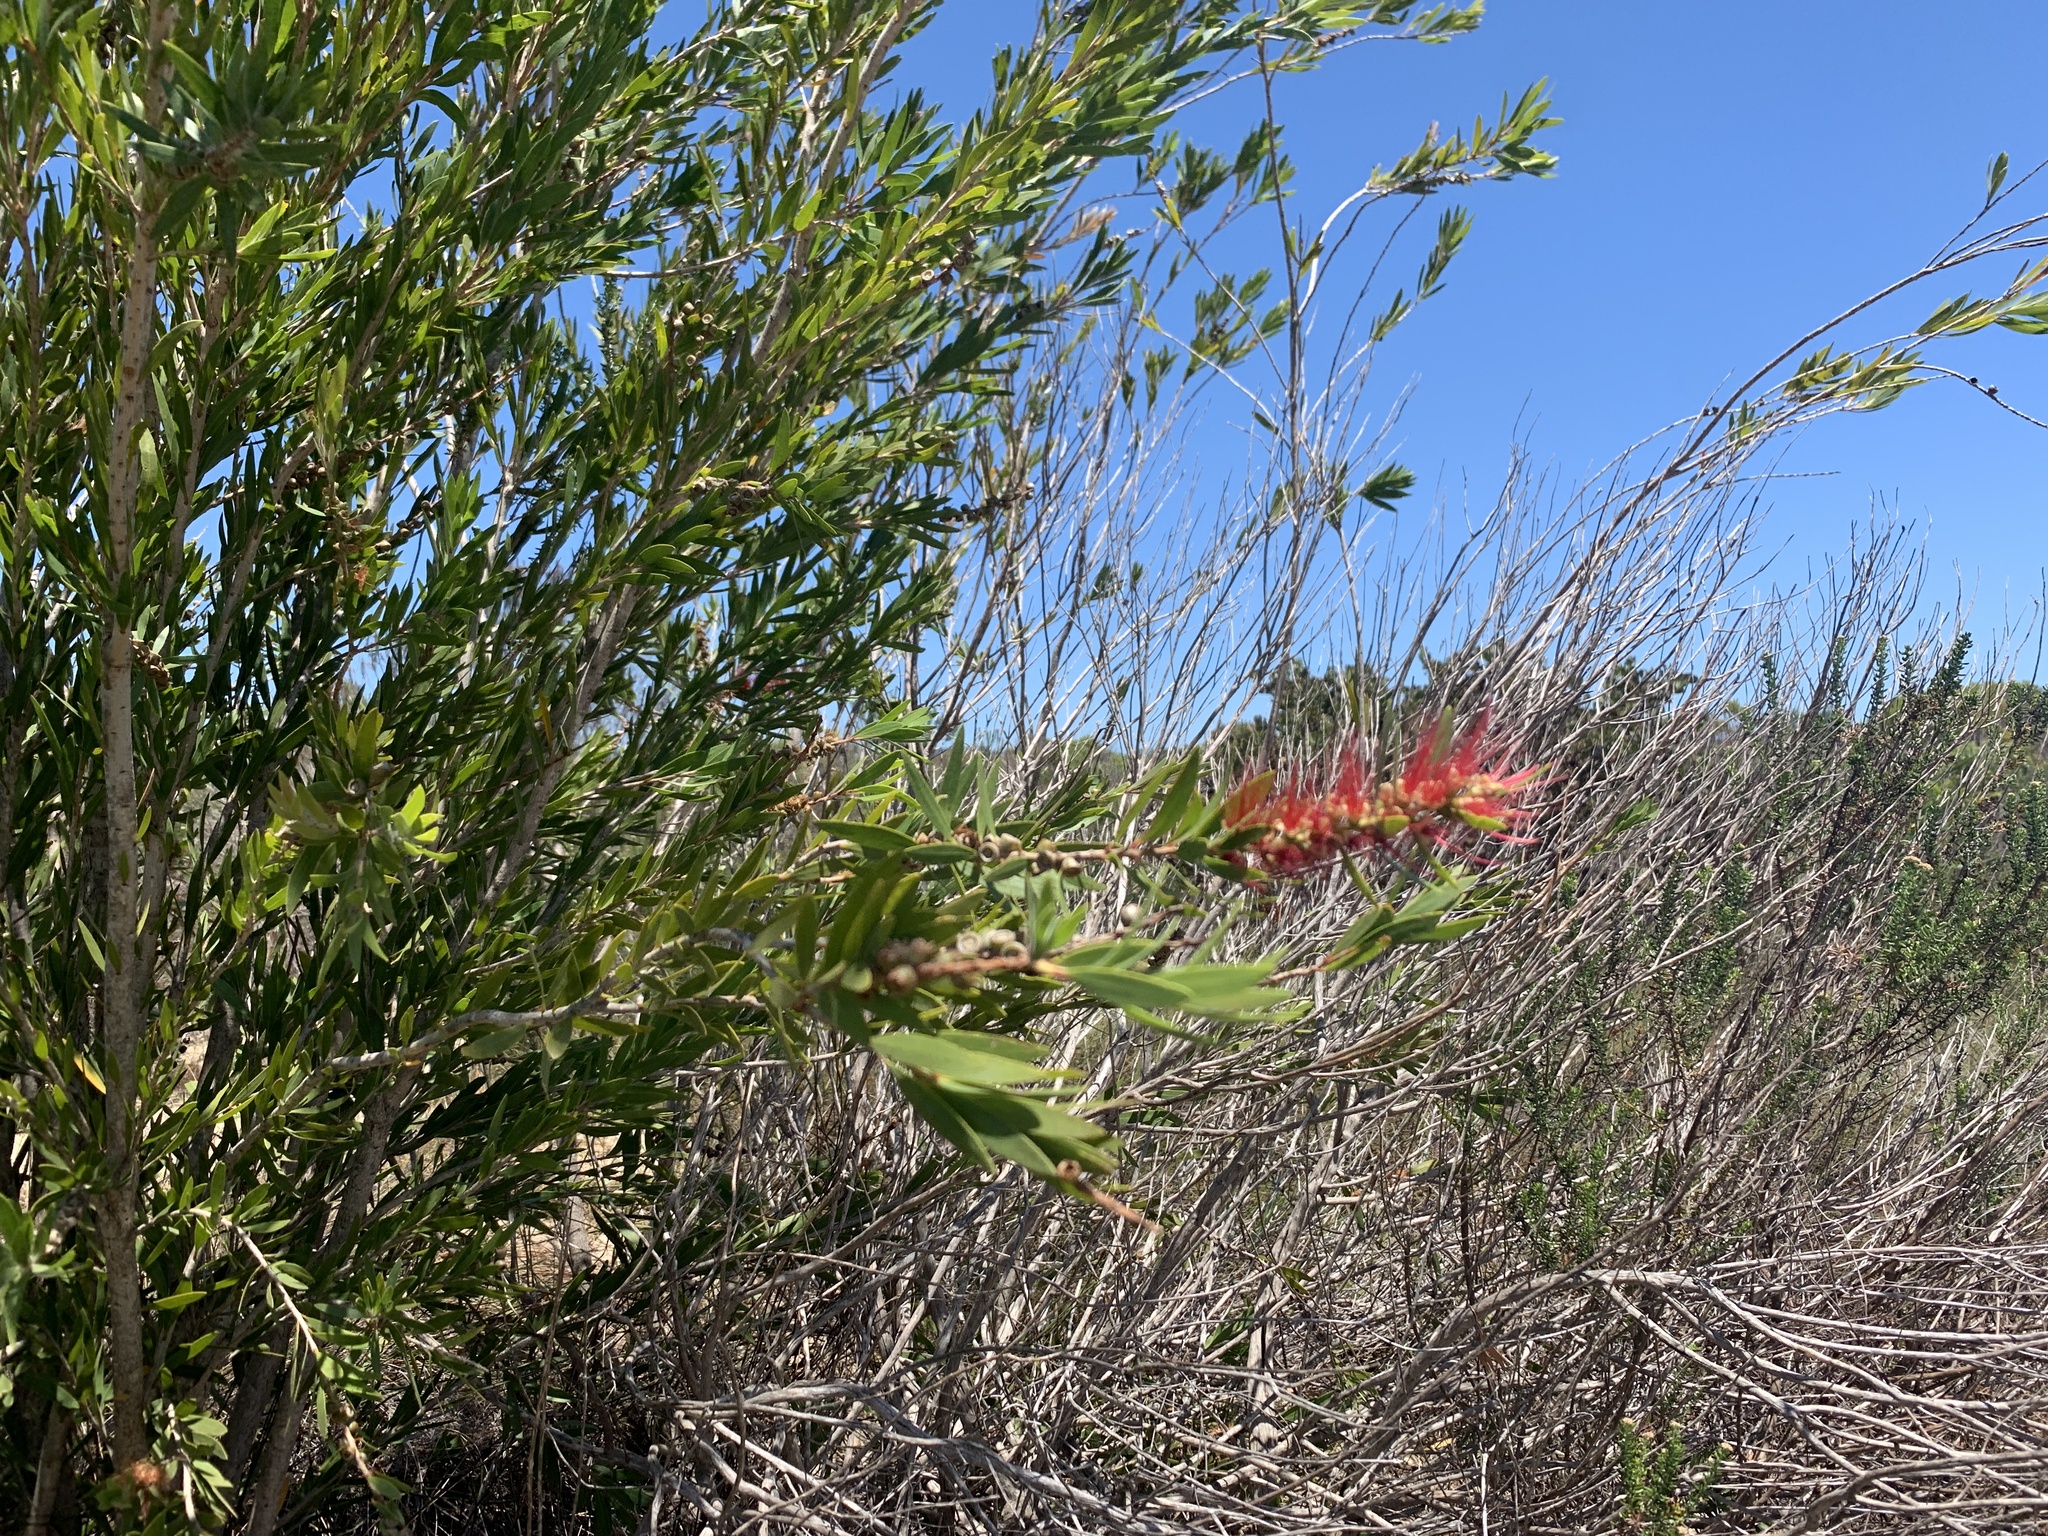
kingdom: Plantae
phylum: Tracheophyta
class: Magnoliopsida
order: Myrtales
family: Myrtaceae
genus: Callistemon
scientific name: Callistemon viminalis
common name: Drooping bottlebrush
